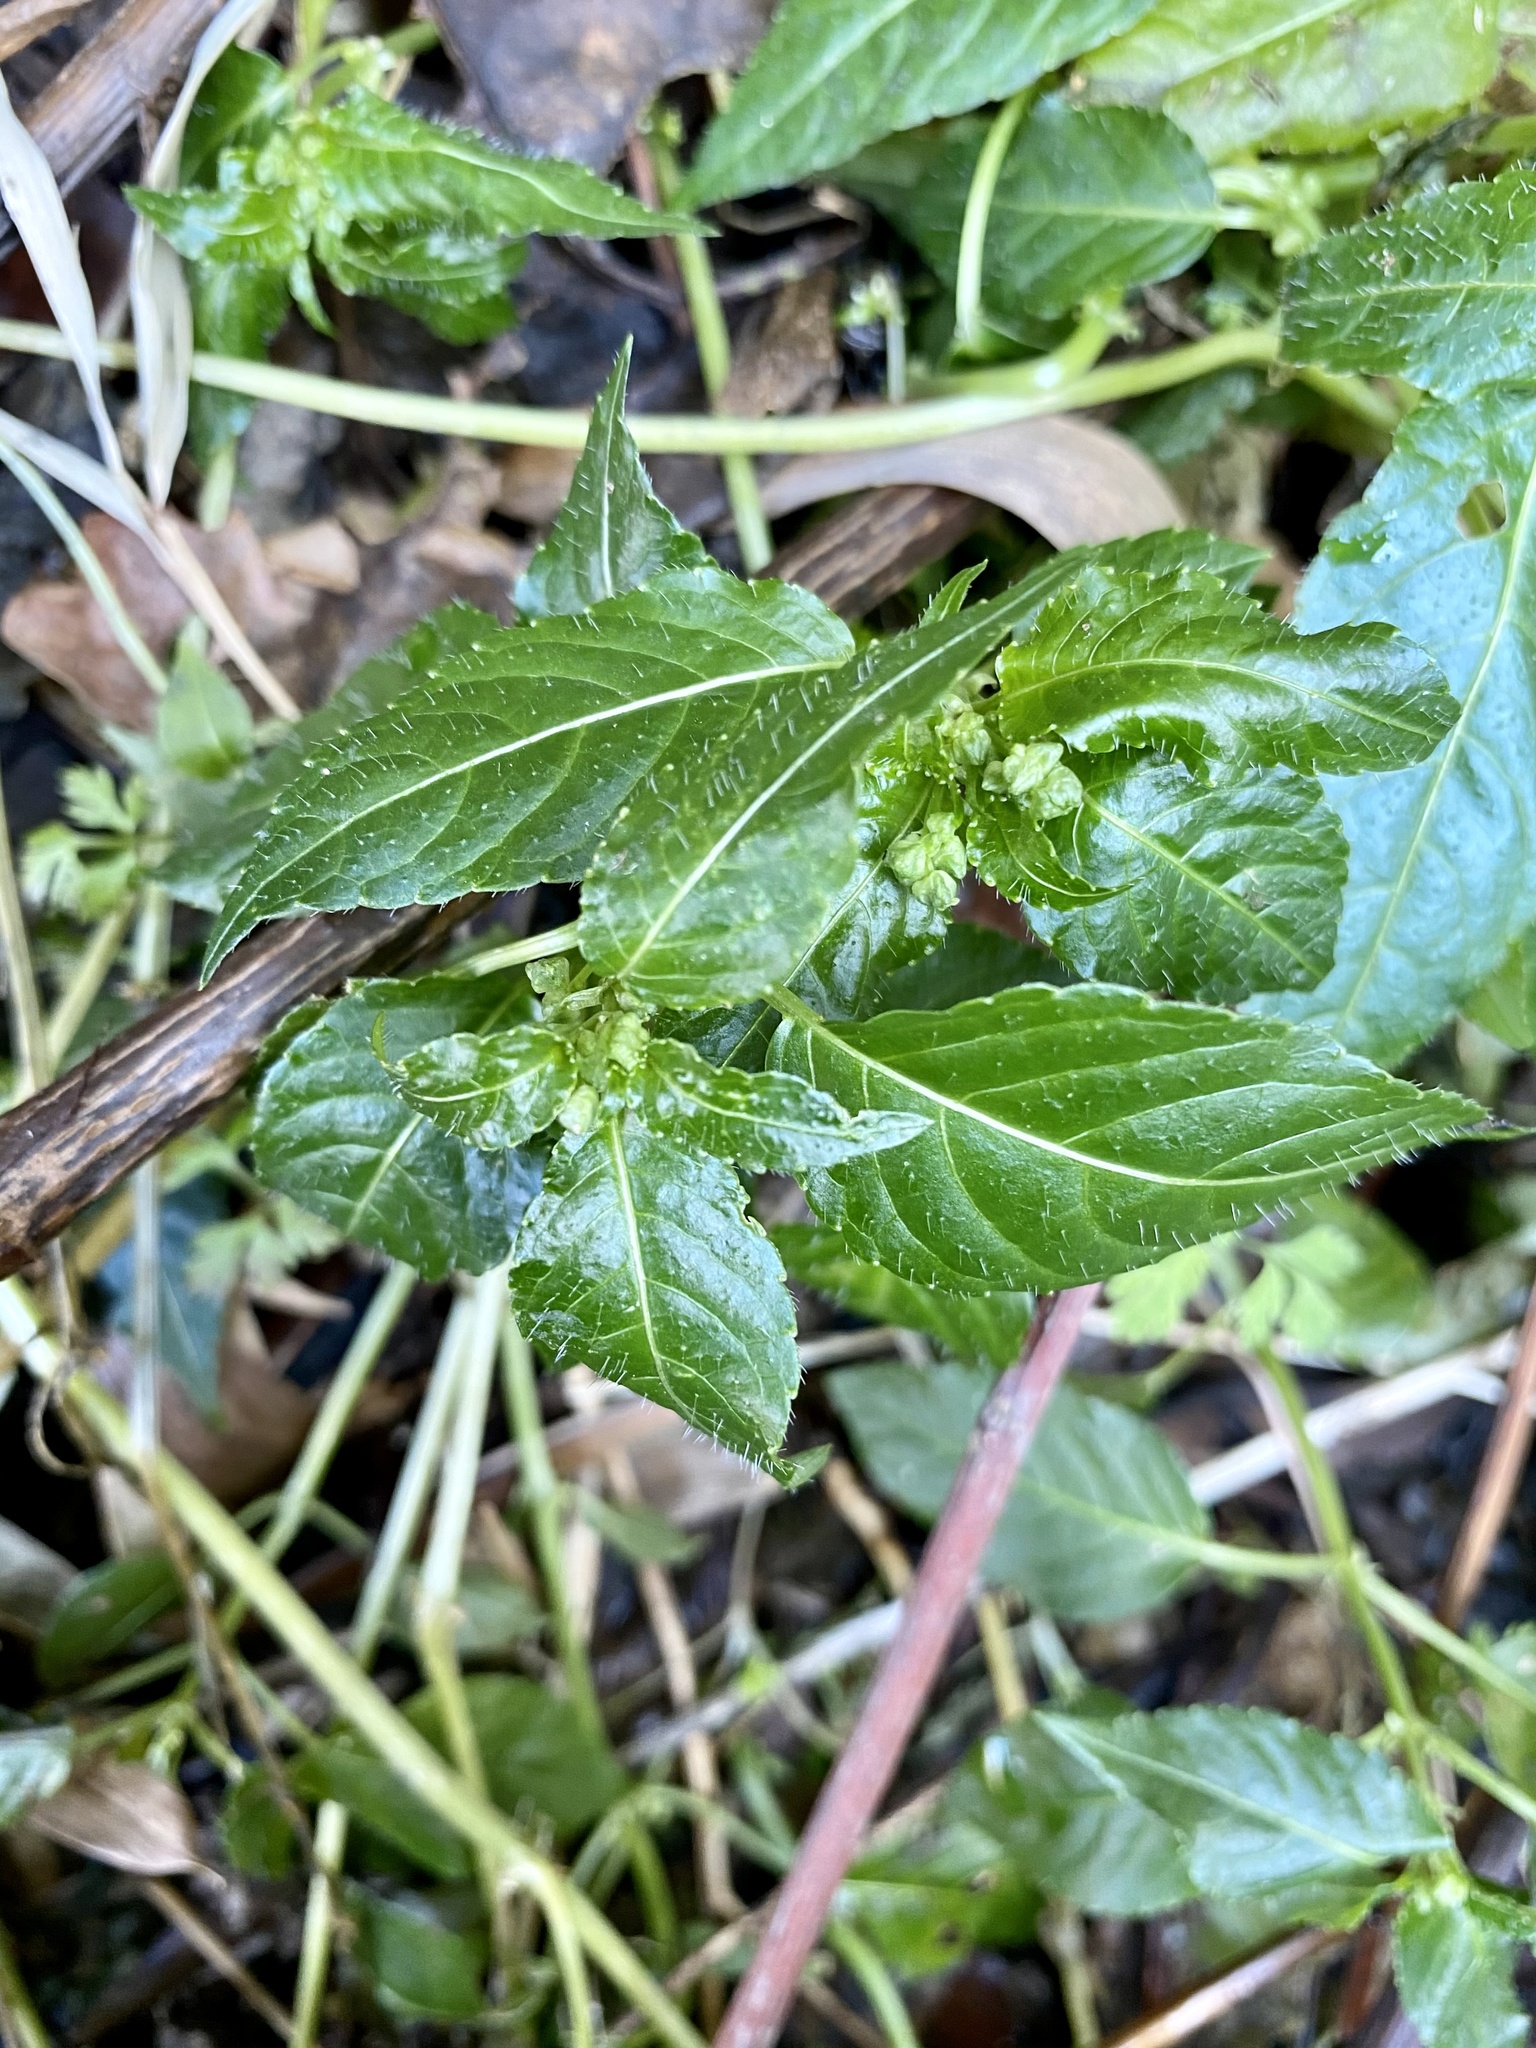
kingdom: Plantae
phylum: Tracheophyta
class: Magnoliopsida
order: Malpighiales
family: Euphorbiaceae
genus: Mercurialis
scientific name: Mercurialis leiocarpa
